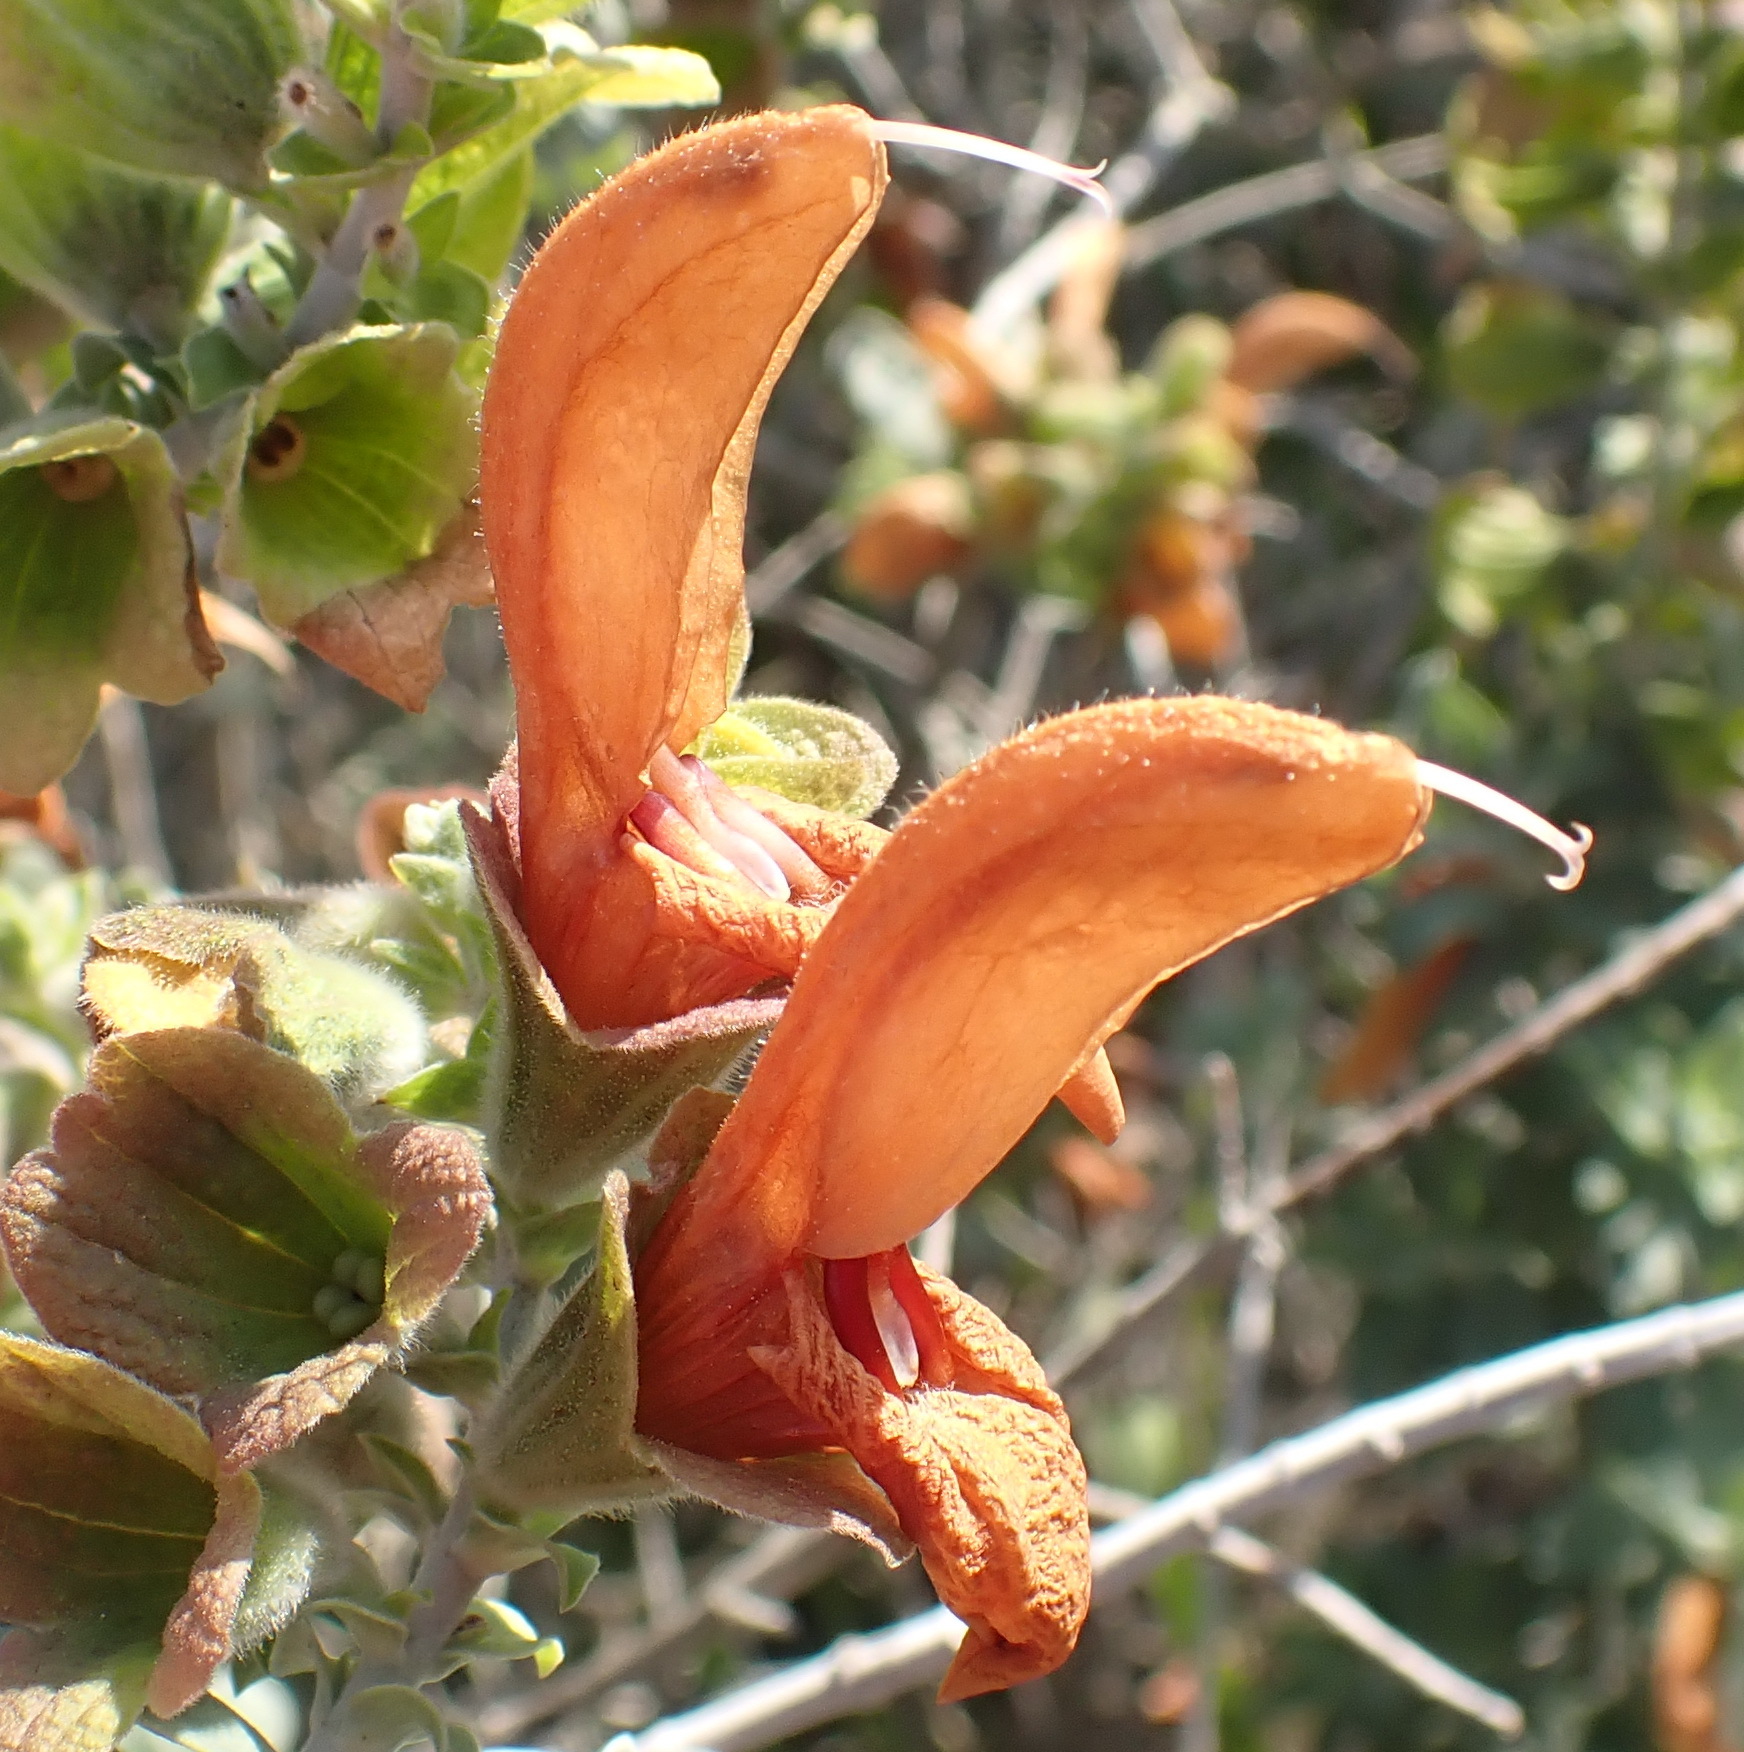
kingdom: Plantae
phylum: Tracheophyta
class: Magnoliopsida
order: Lamiales
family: Lamiaceae
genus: Salvia
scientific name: Salvia aurea
